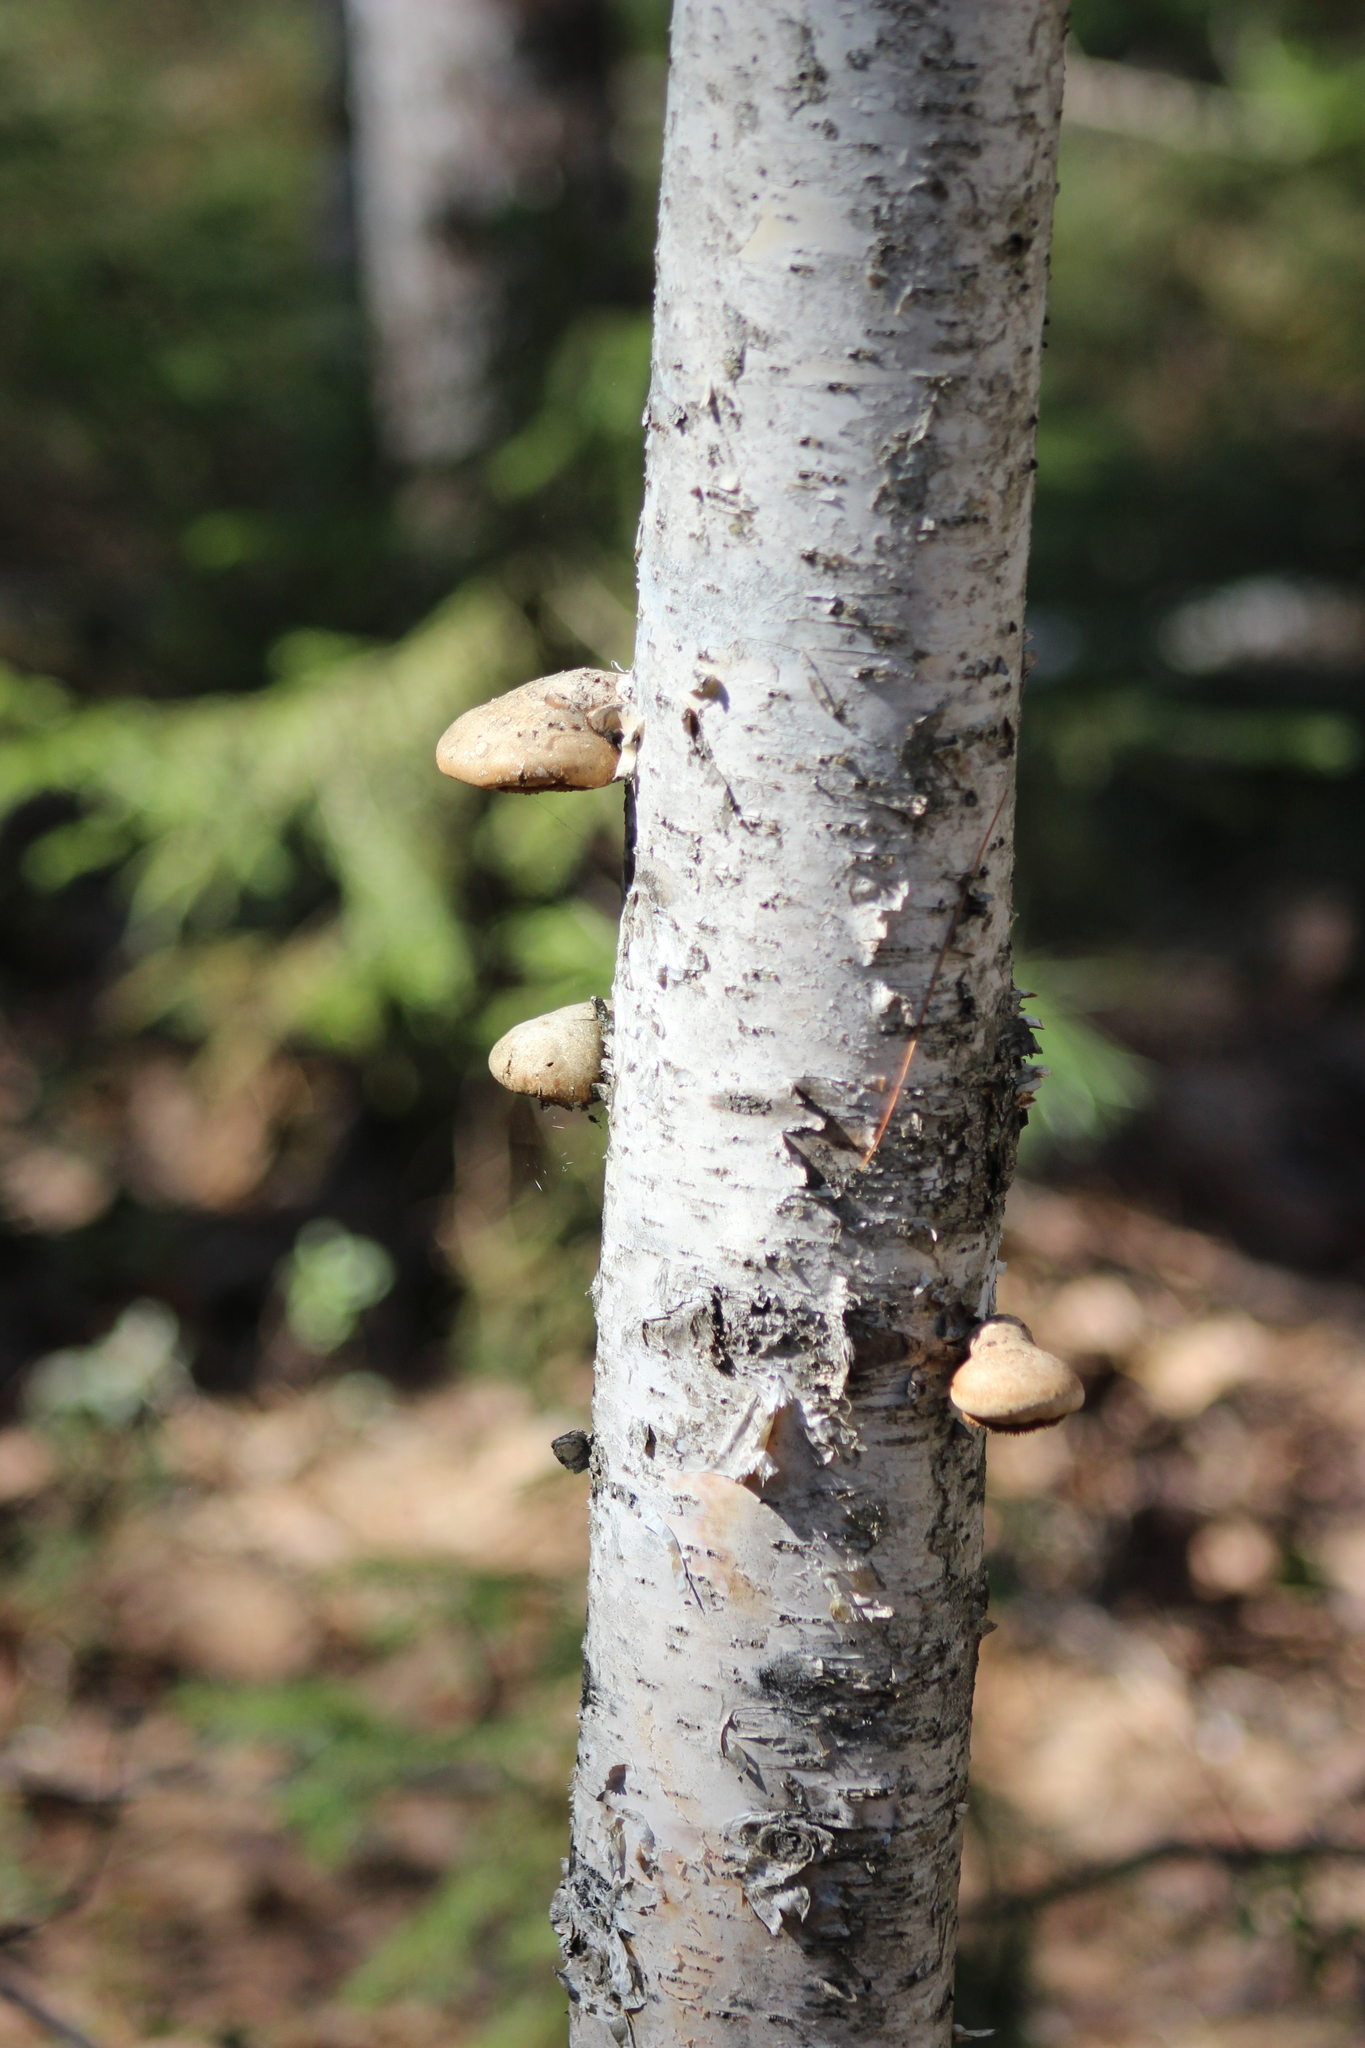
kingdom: Fungi
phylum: Basidiomycota
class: Agaricomycetes
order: Polyporales
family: Fomitopsidaceae
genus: Fomitopsis
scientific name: Fomitopsis betulina
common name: Birch polypore
